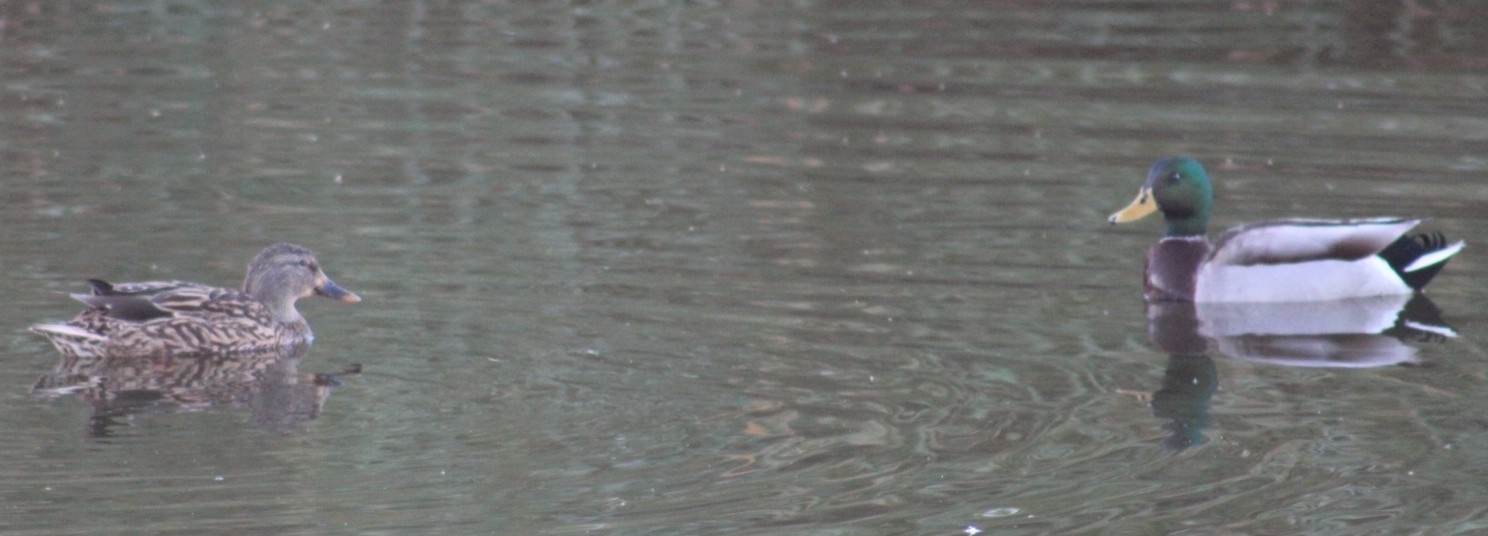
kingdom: Animalia
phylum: Chordata
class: Aves
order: Anseriformes
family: Anatidae
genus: Anas
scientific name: Anas platyrhynchos
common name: Mallard
